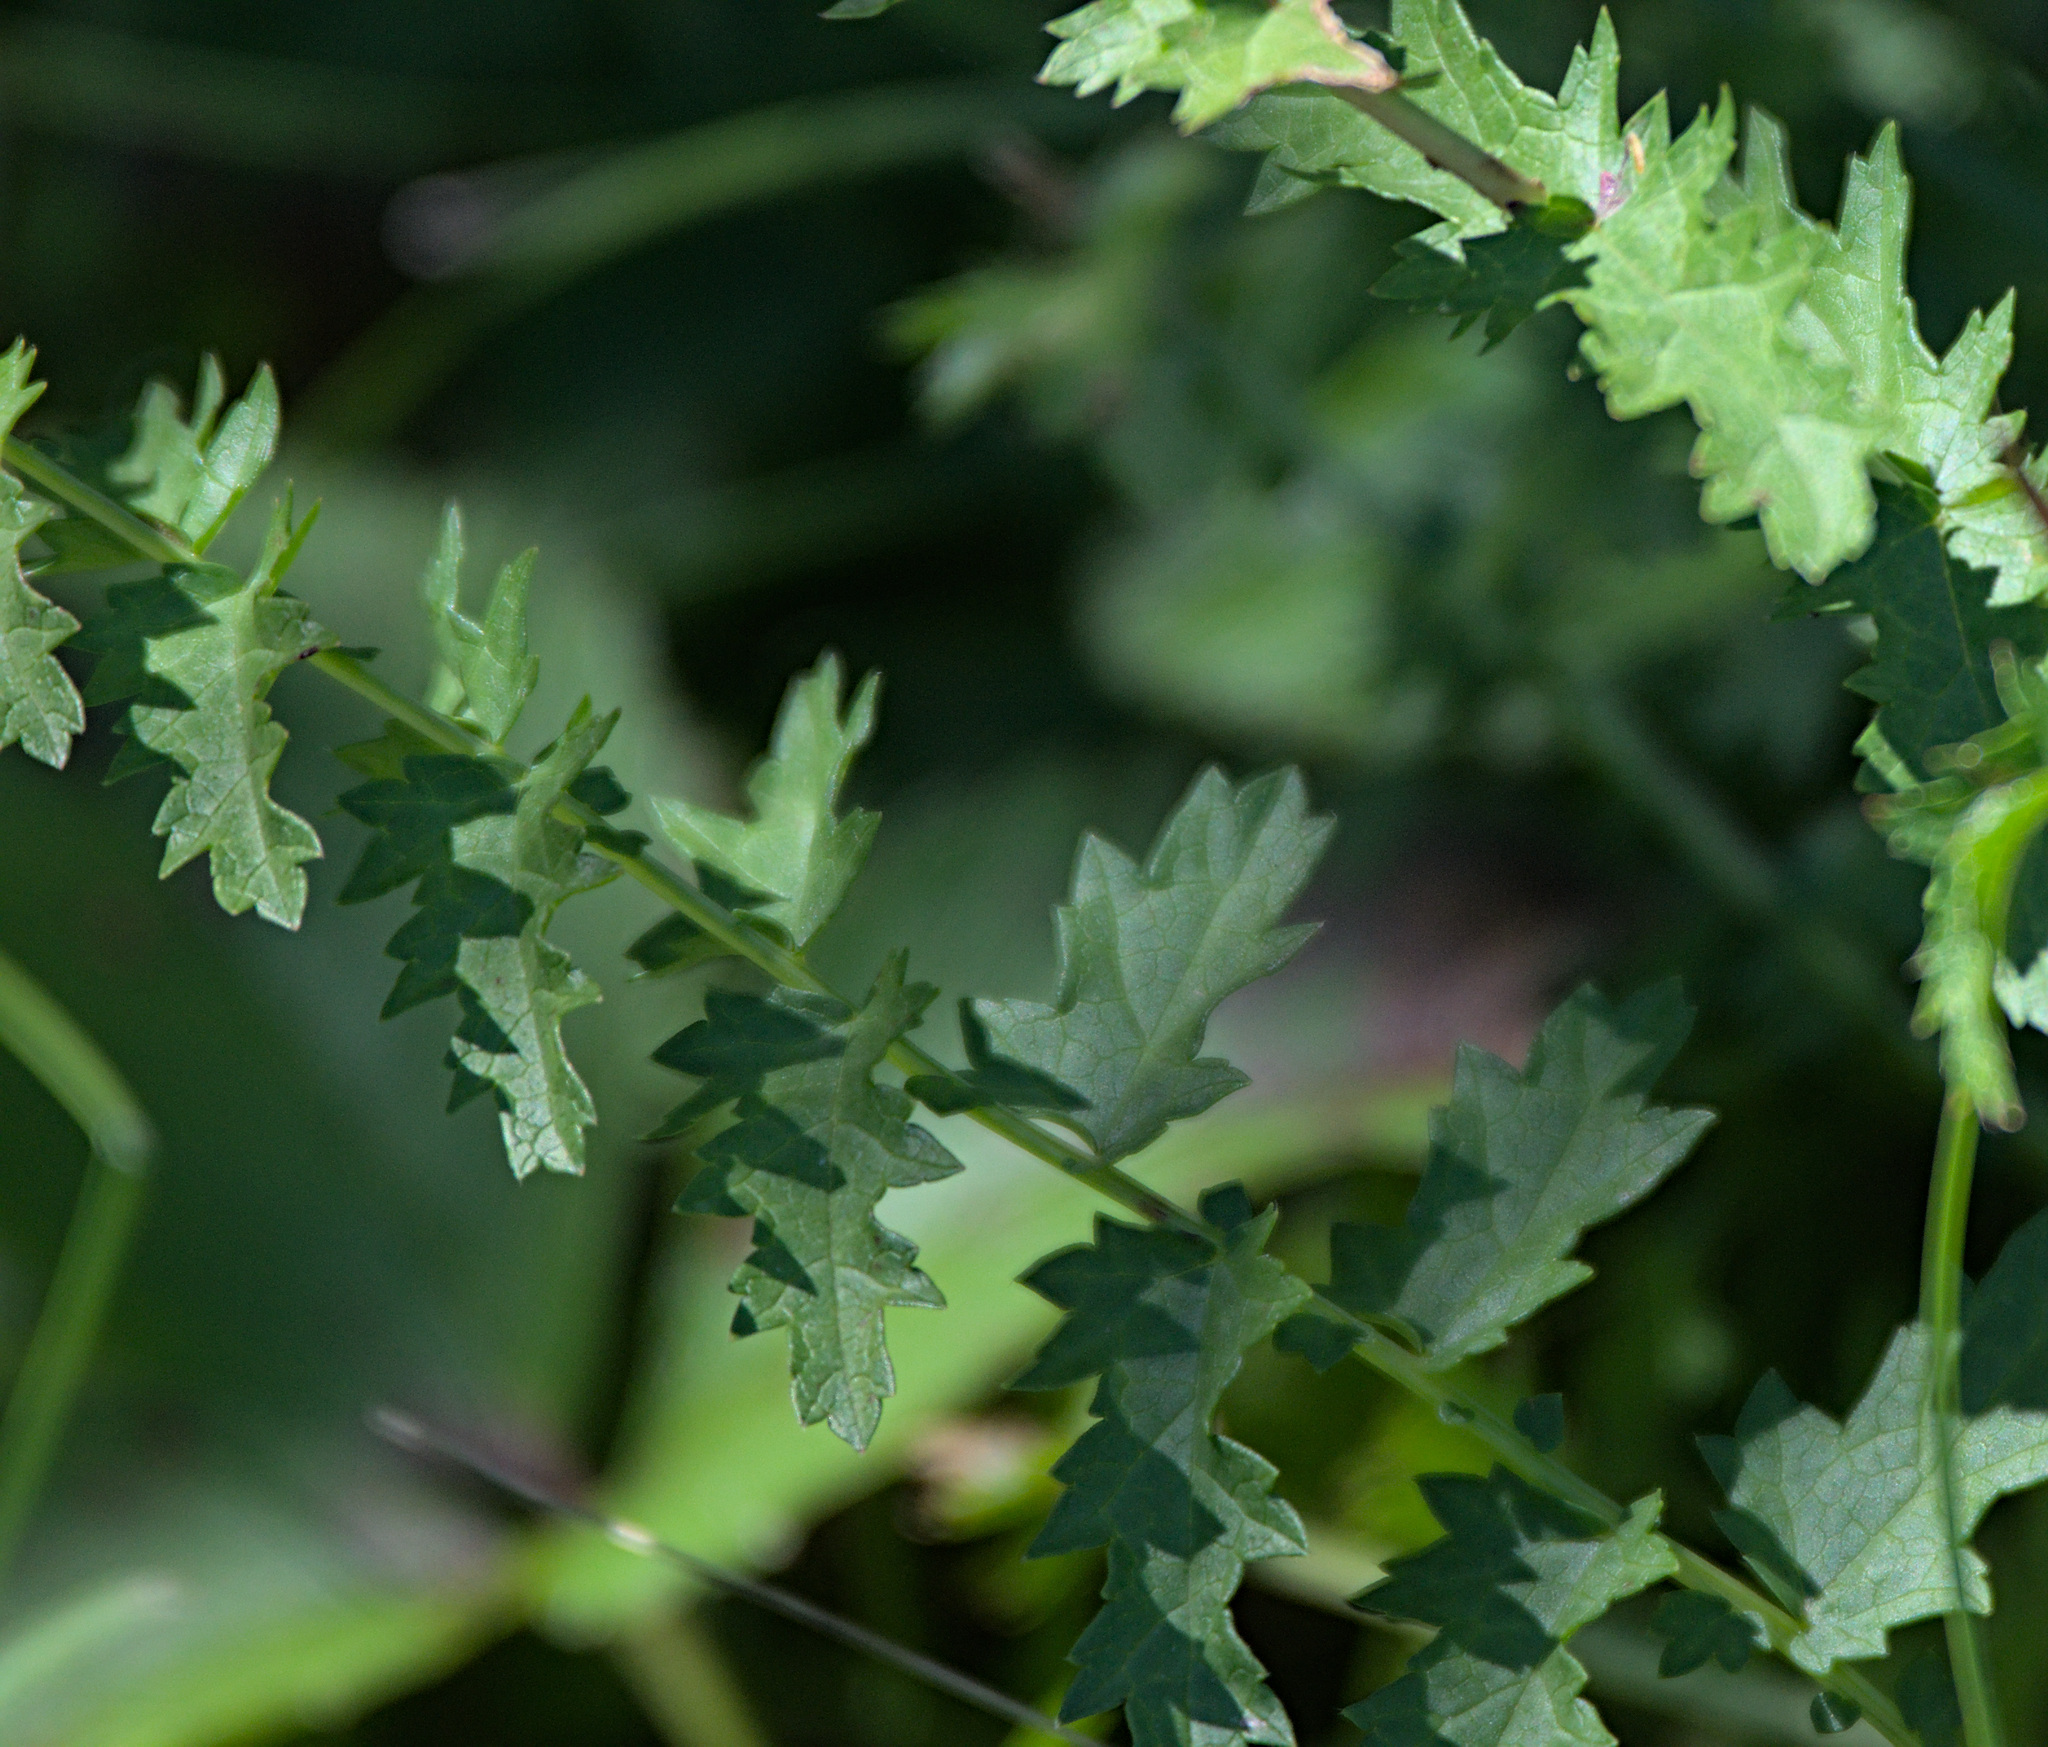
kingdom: Plantae
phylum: Tracheophyta
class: Magnoliopsida
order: Rosales
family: Rosaceae
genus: Filipendula
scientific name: Filipendula vulgaris
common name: Dropwort
